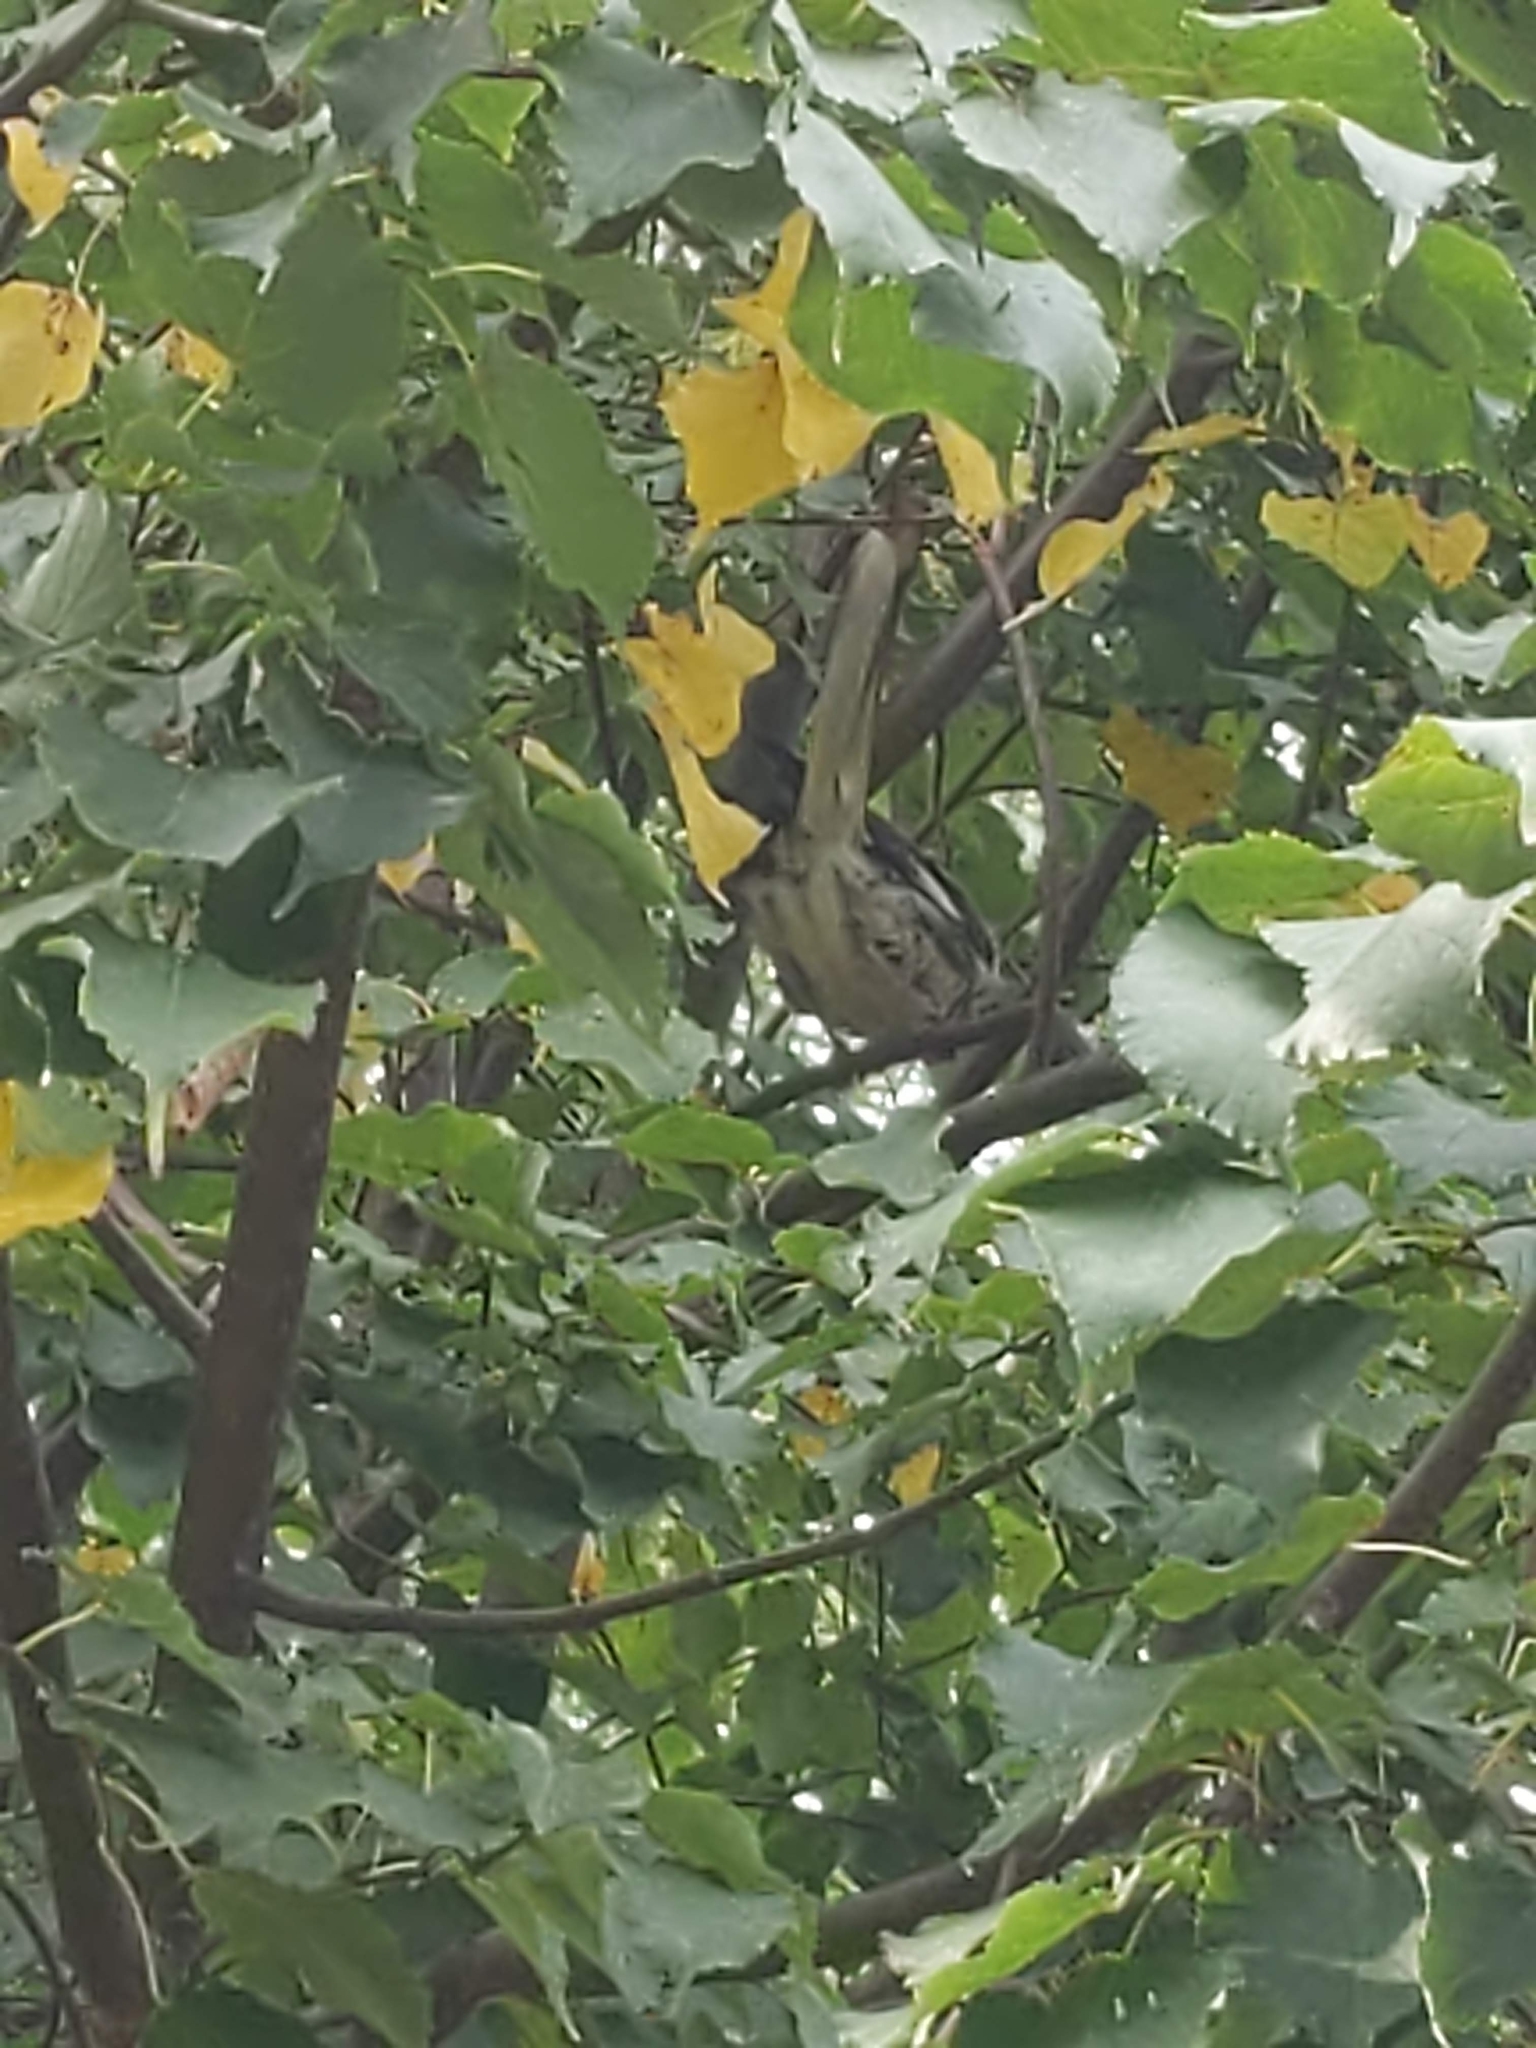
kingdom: Animalia
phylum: Chordata
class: Aves
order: Passeriformes
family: Mimidae
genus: Mimus
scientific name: Mimus polyglottos
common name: Northern mockingbird
